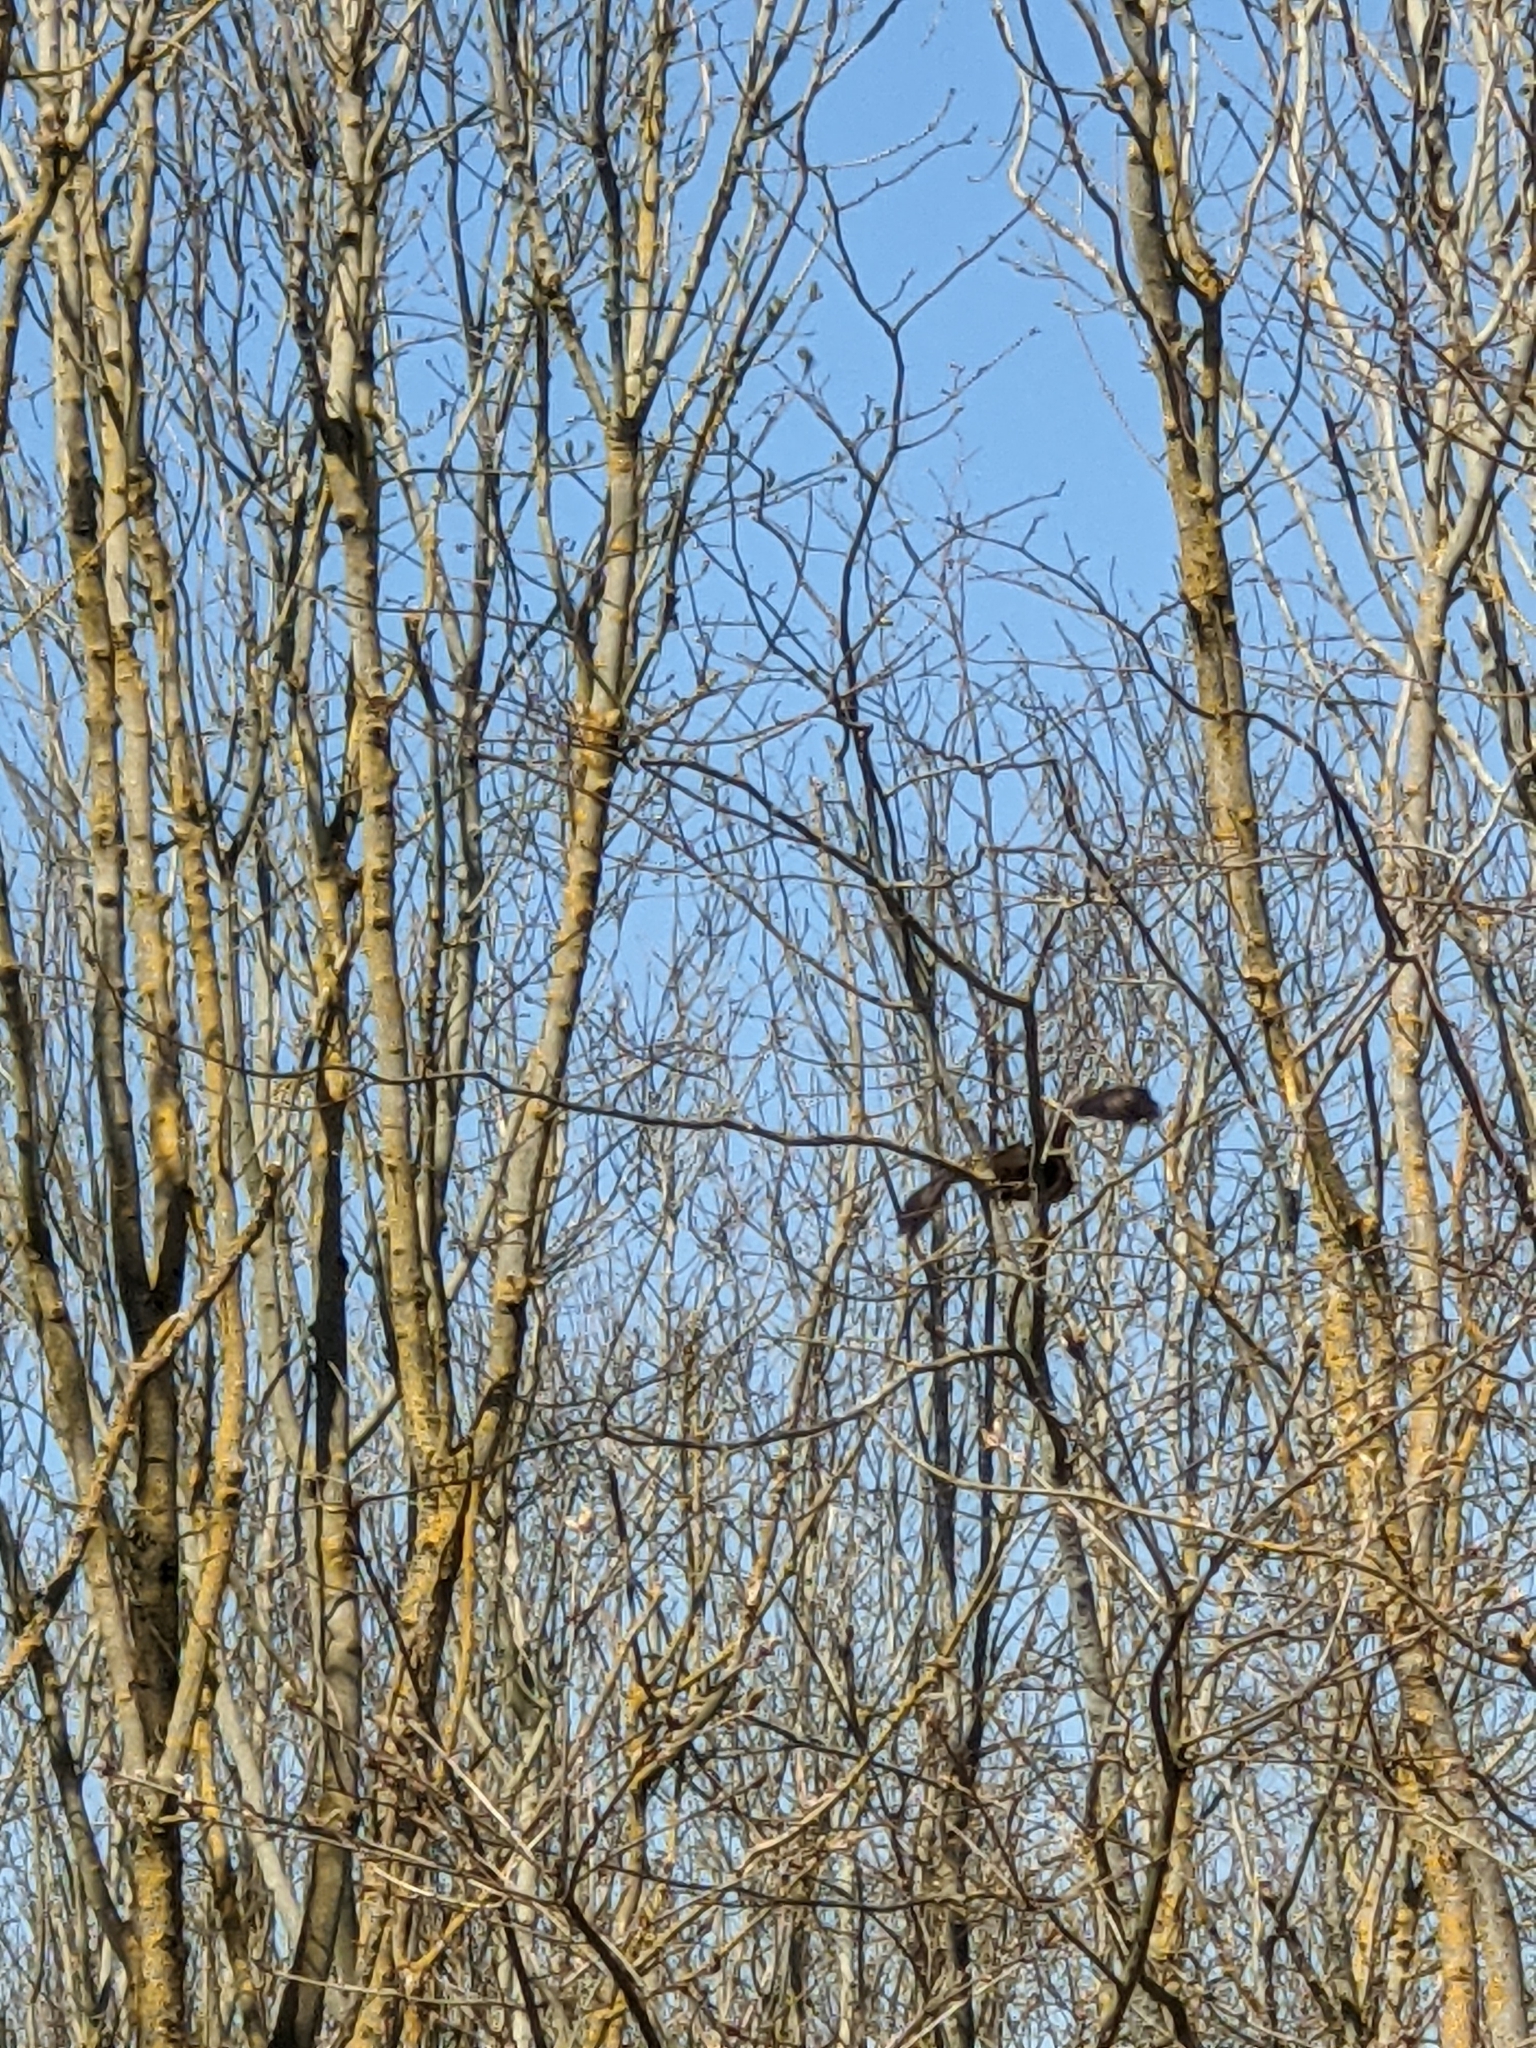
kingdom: Animalia
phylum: Chordata
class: Aves
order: Accipitriformes
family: Accipitridae
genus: Buteo
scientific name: Buteo buteo
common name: Common buzzard
